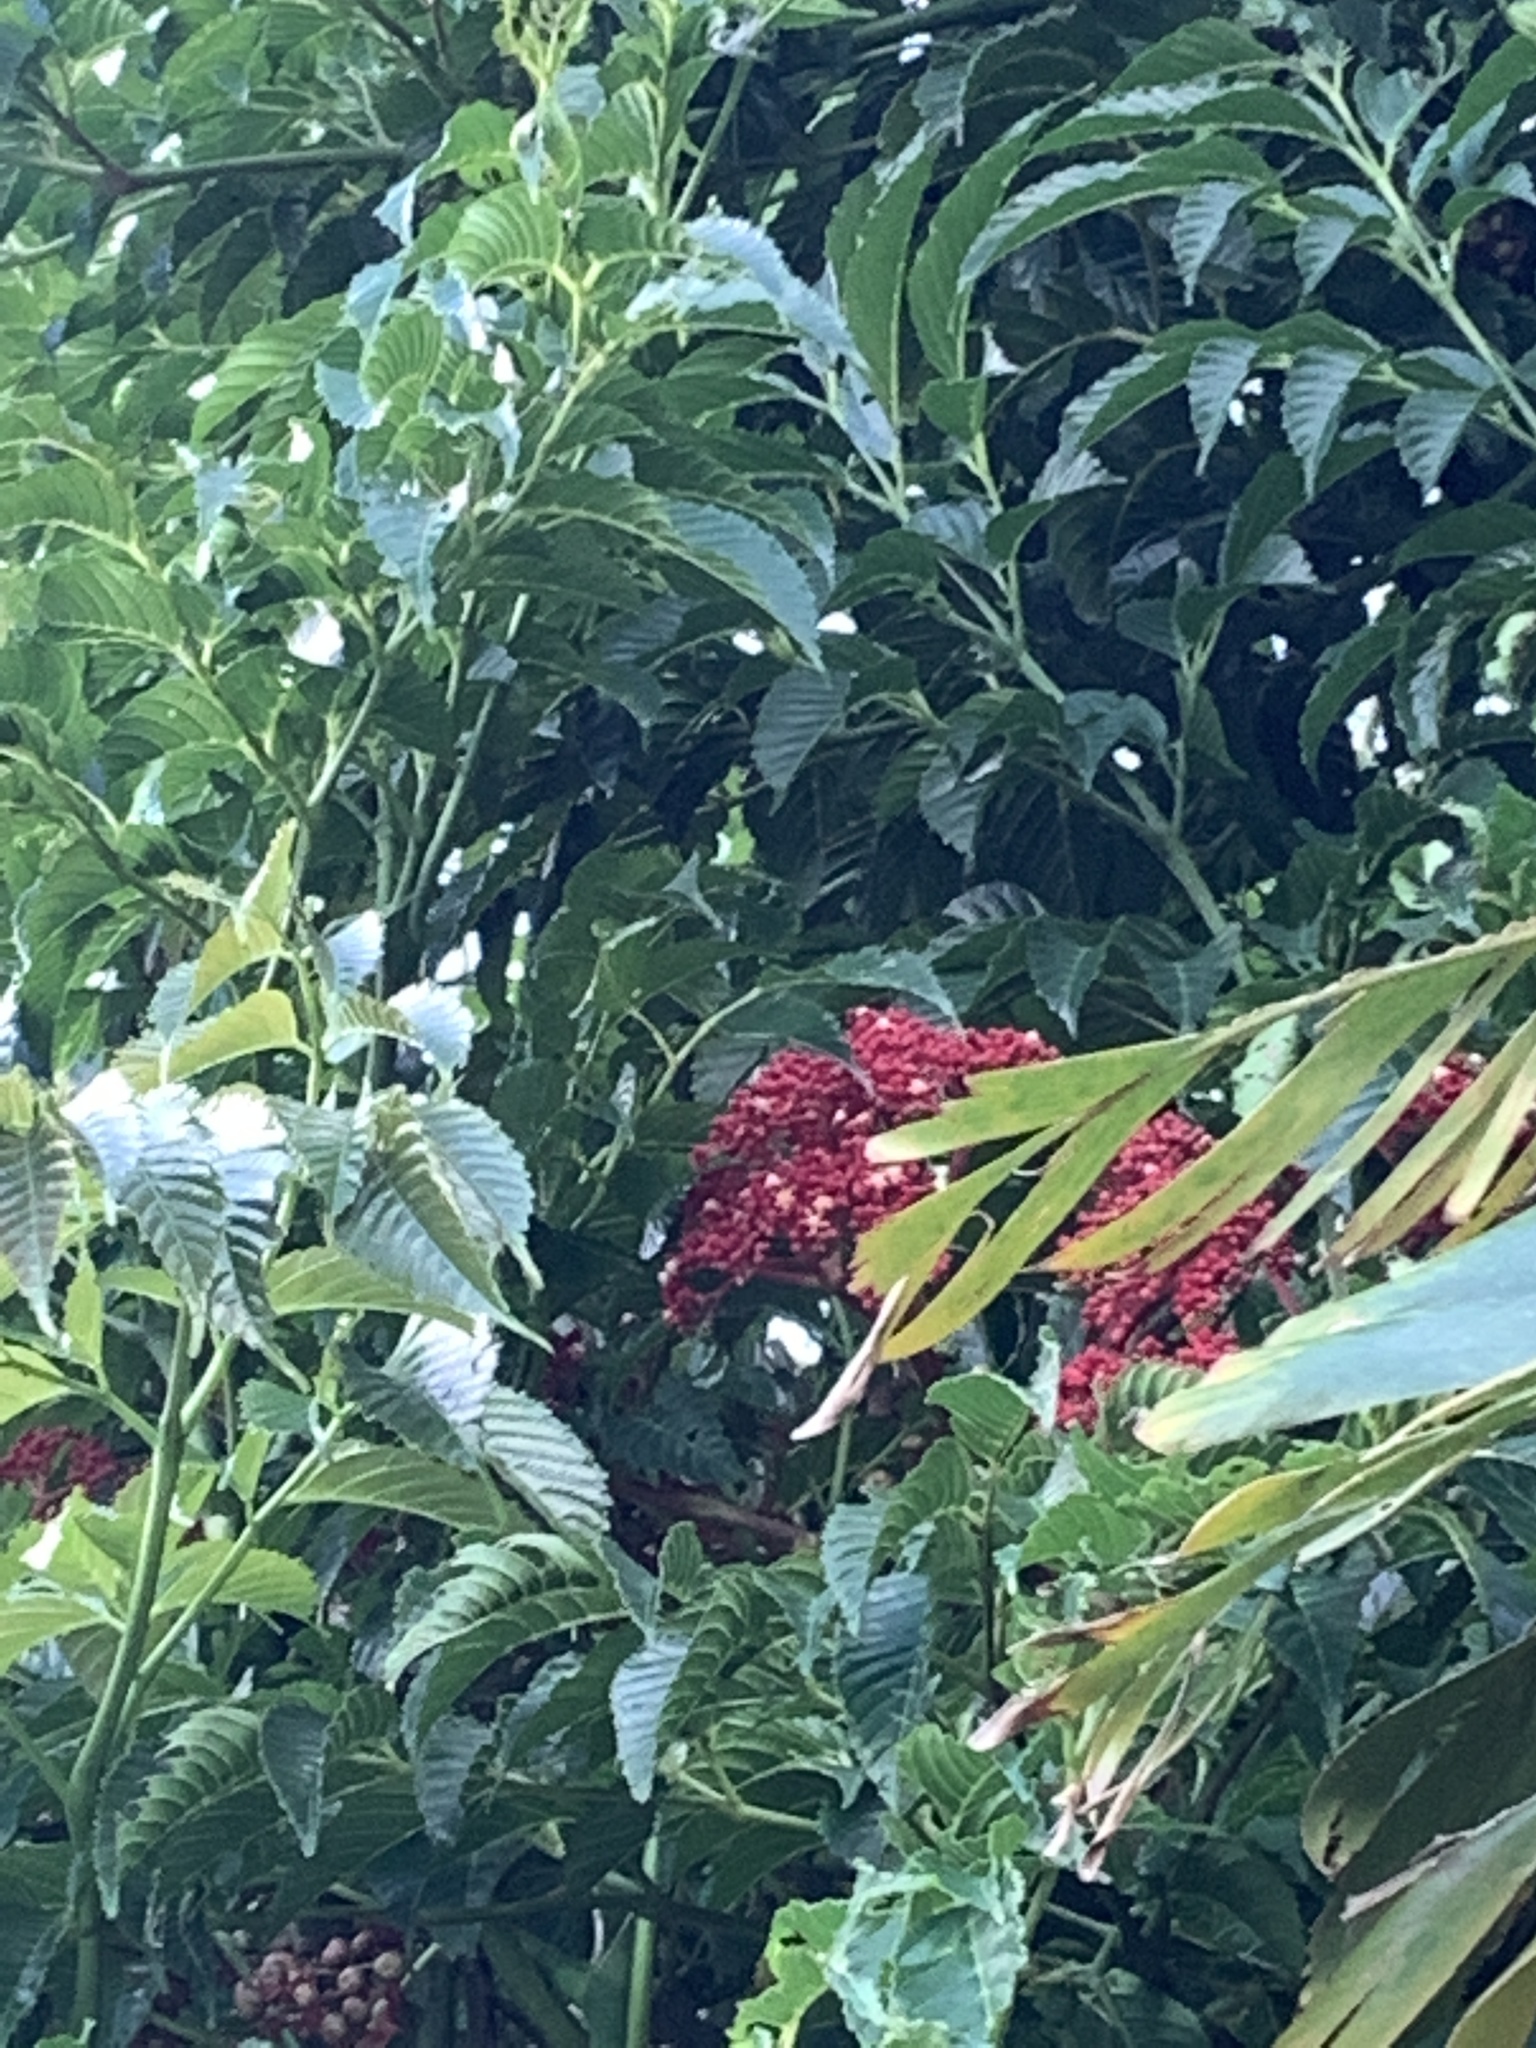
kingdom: Plantae
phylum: Tracheophyta
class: Magnoliopsida
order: Vitales
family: Vitaceae
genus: Leea
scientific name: Leea guineensis
